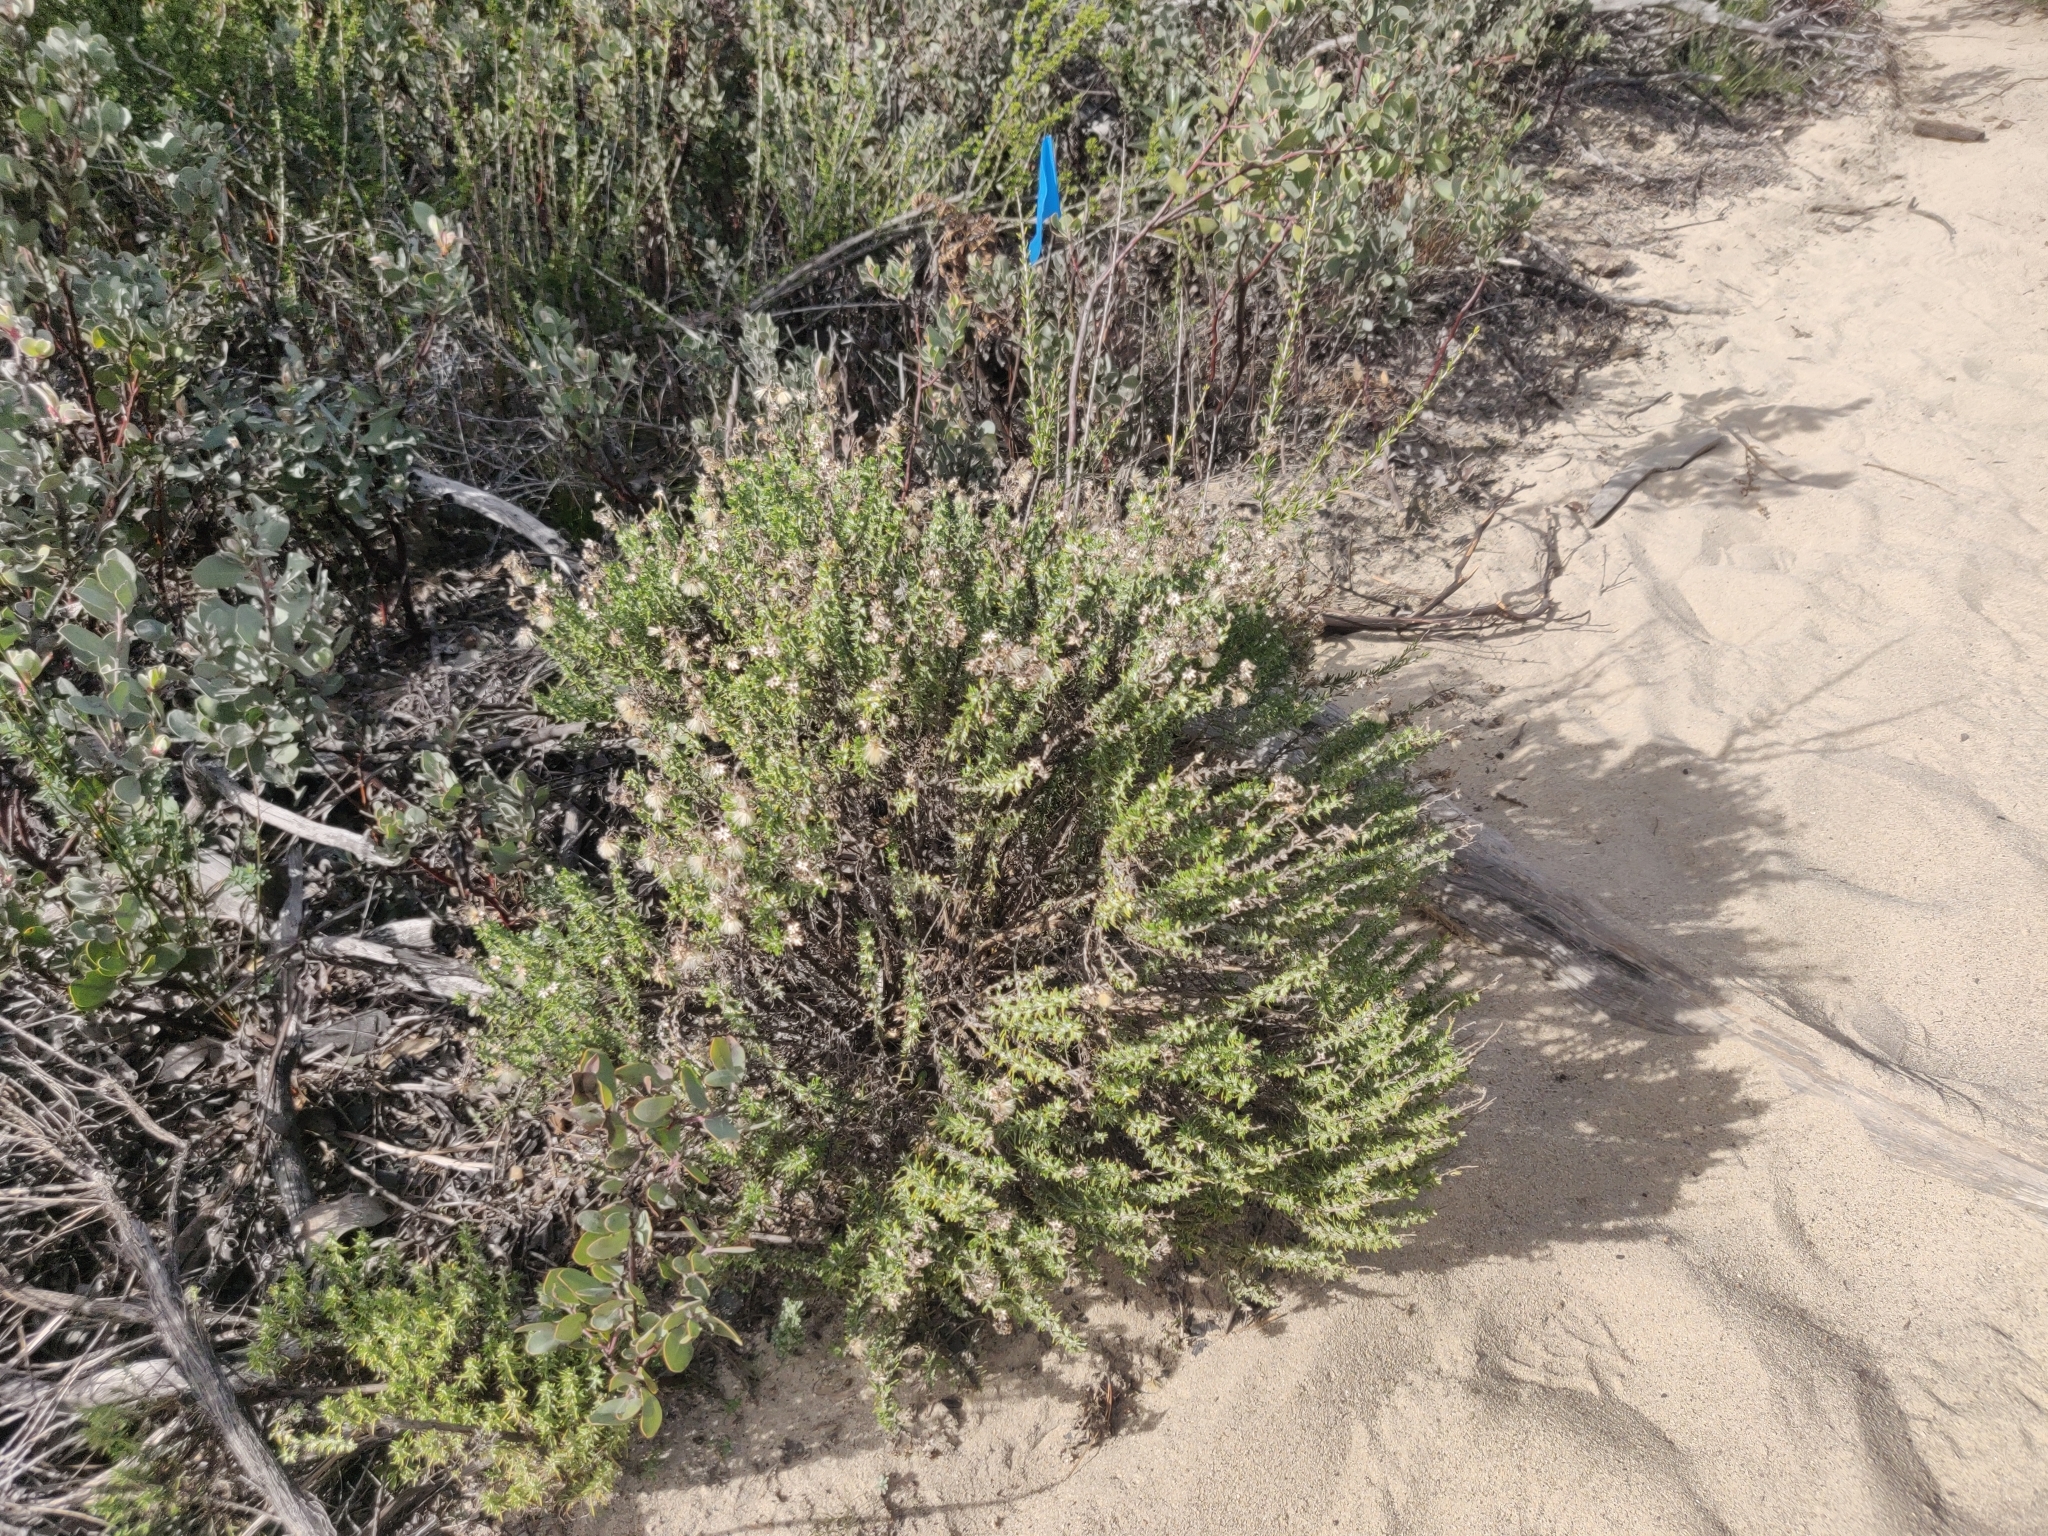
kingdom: Plantae
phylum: Tracheophyta
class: Magnoliopsida
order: Asterales
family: Asteraceae
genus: Ericameria
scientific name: Ericameria ericoides
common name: California goldenbush
